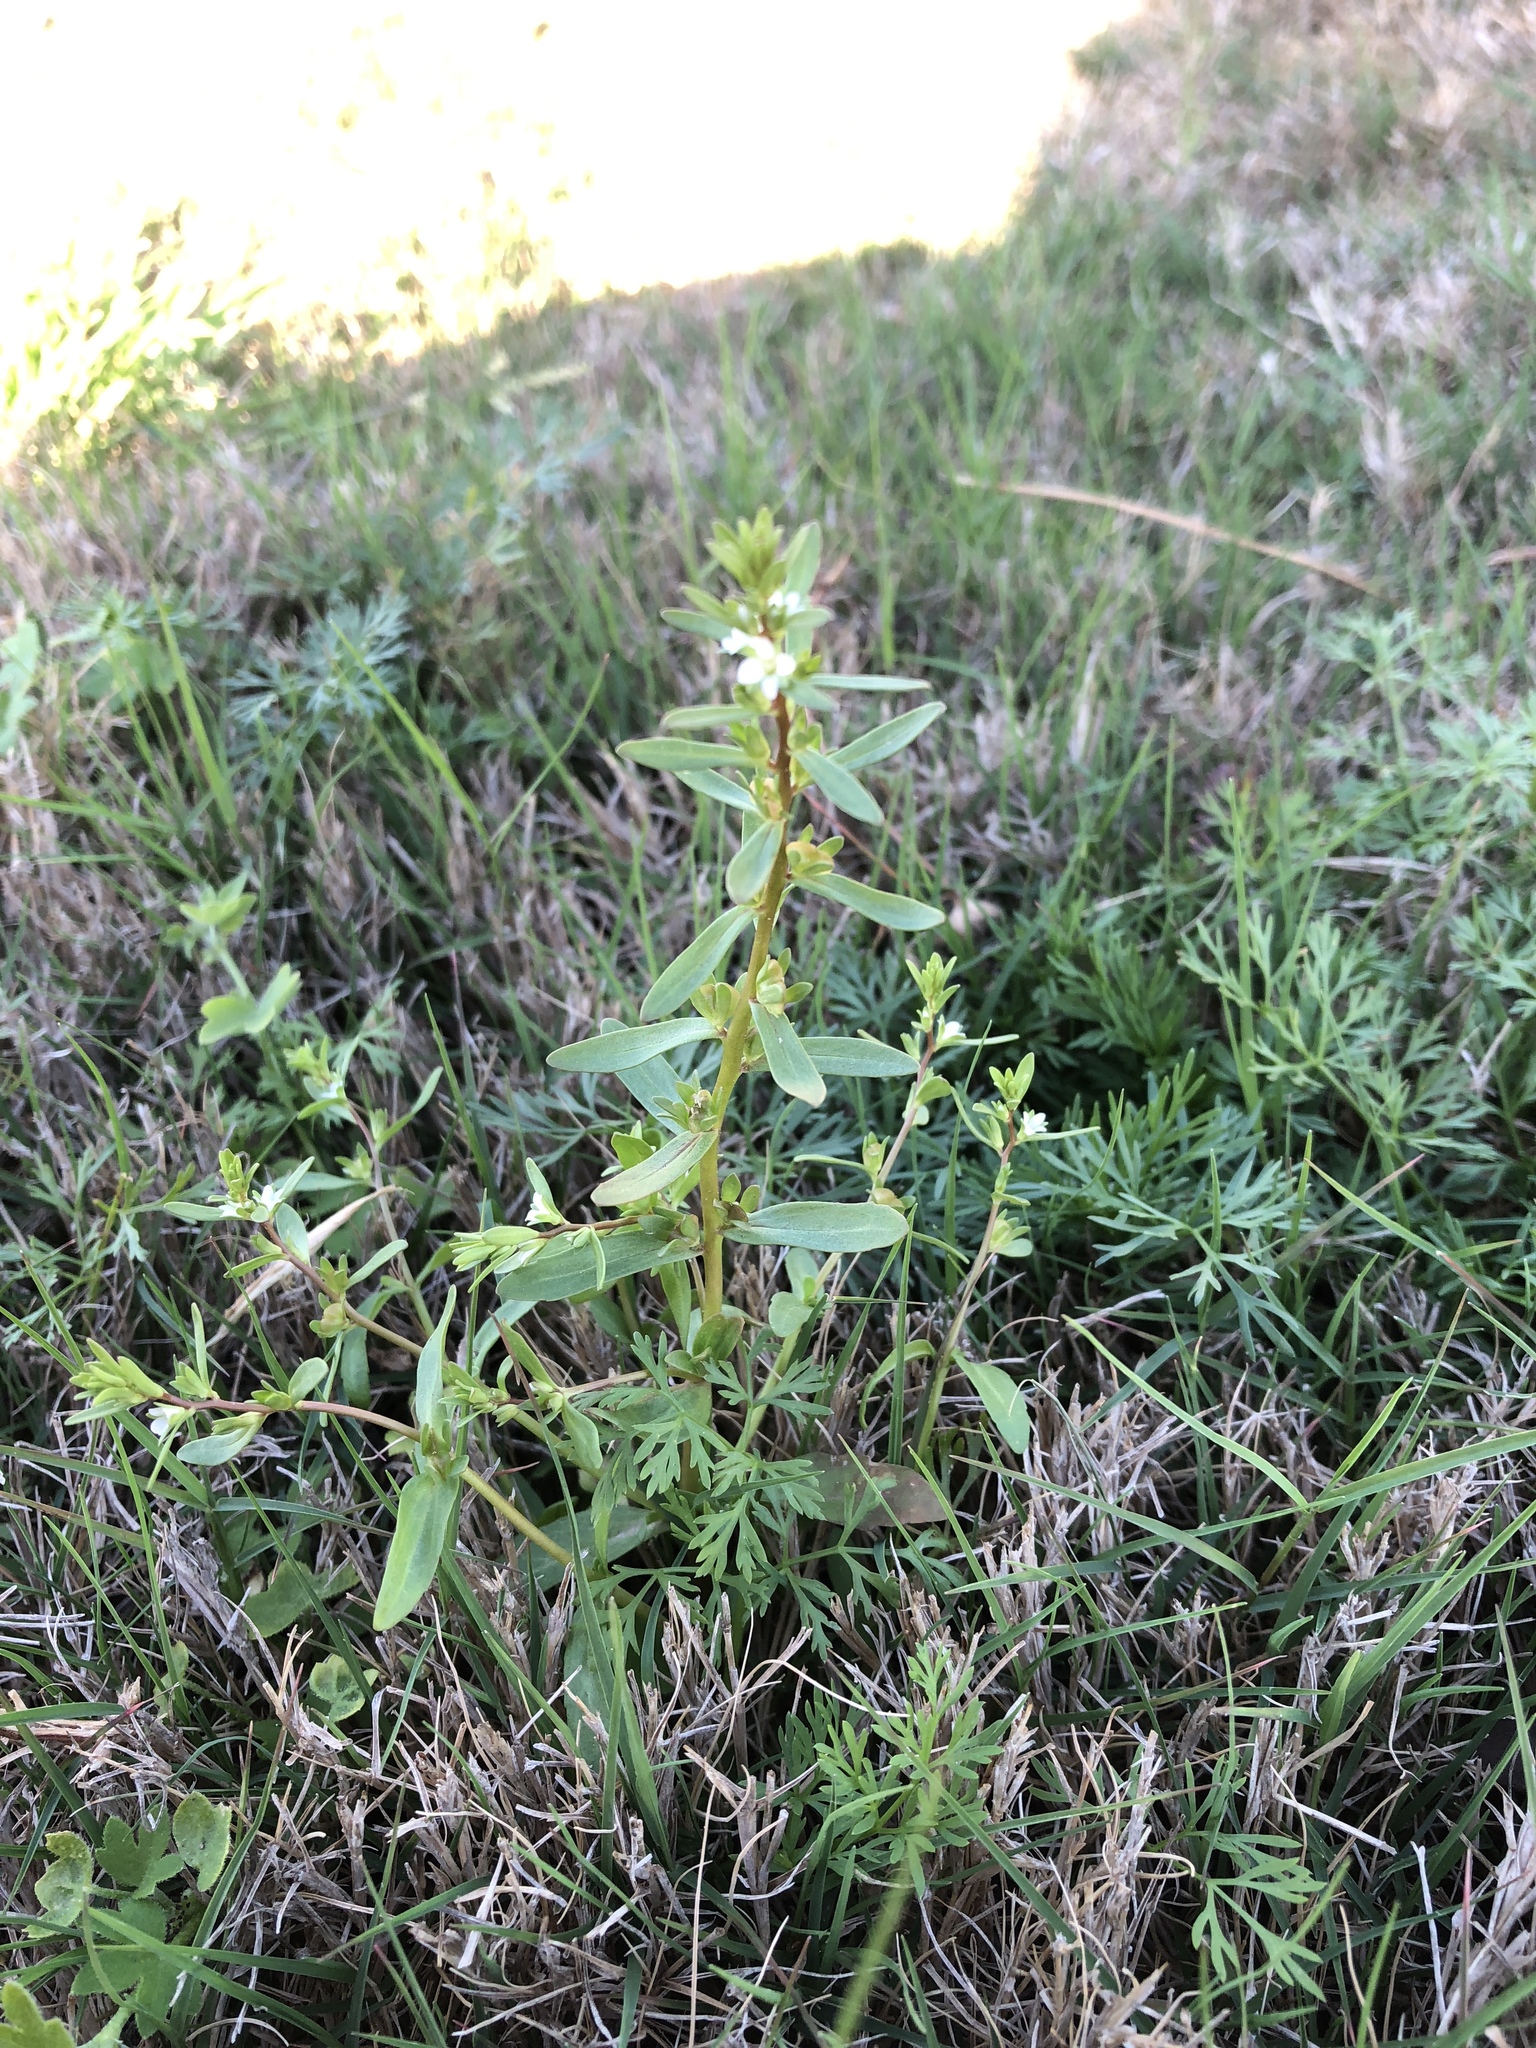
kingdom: Plantae
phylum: Tracheophyta
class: Magnoliopsida
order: Lamiales
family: Plantaginaceae
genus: Veronica
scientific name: Veronica peregrina
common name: Neckweed
